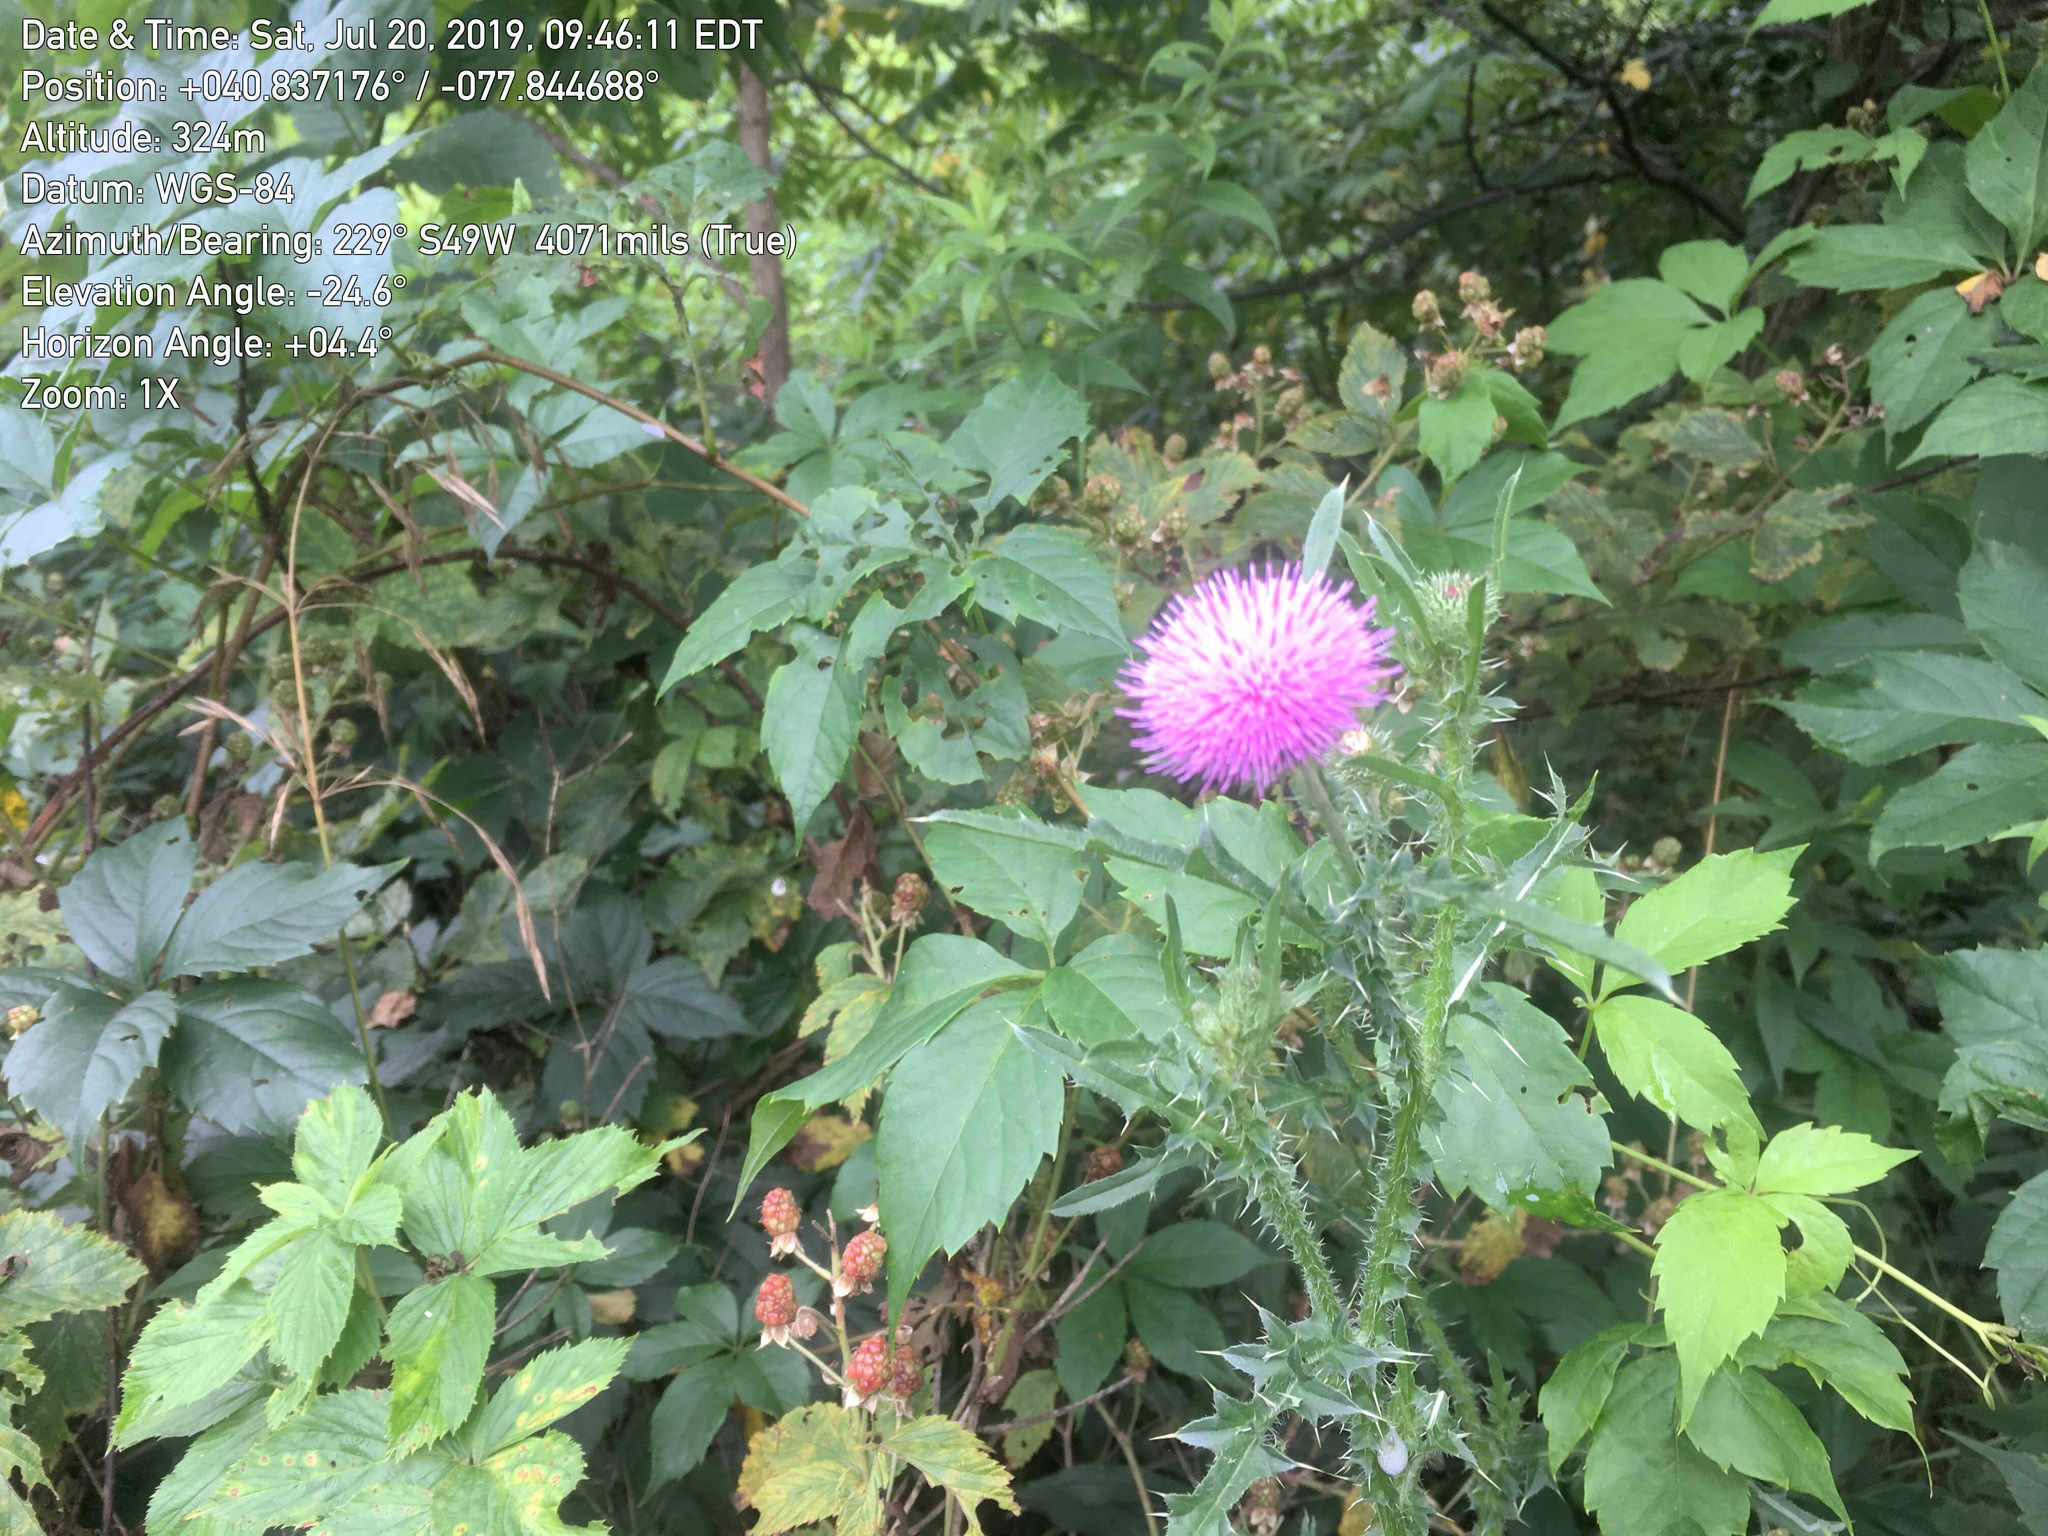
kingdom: Plantae
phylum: Tracheophyta
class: Magnoliopsida
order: Asterales
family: Asteraceae
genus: Carduus
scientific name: Carduus acanthoides
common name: Plumeless thistle
